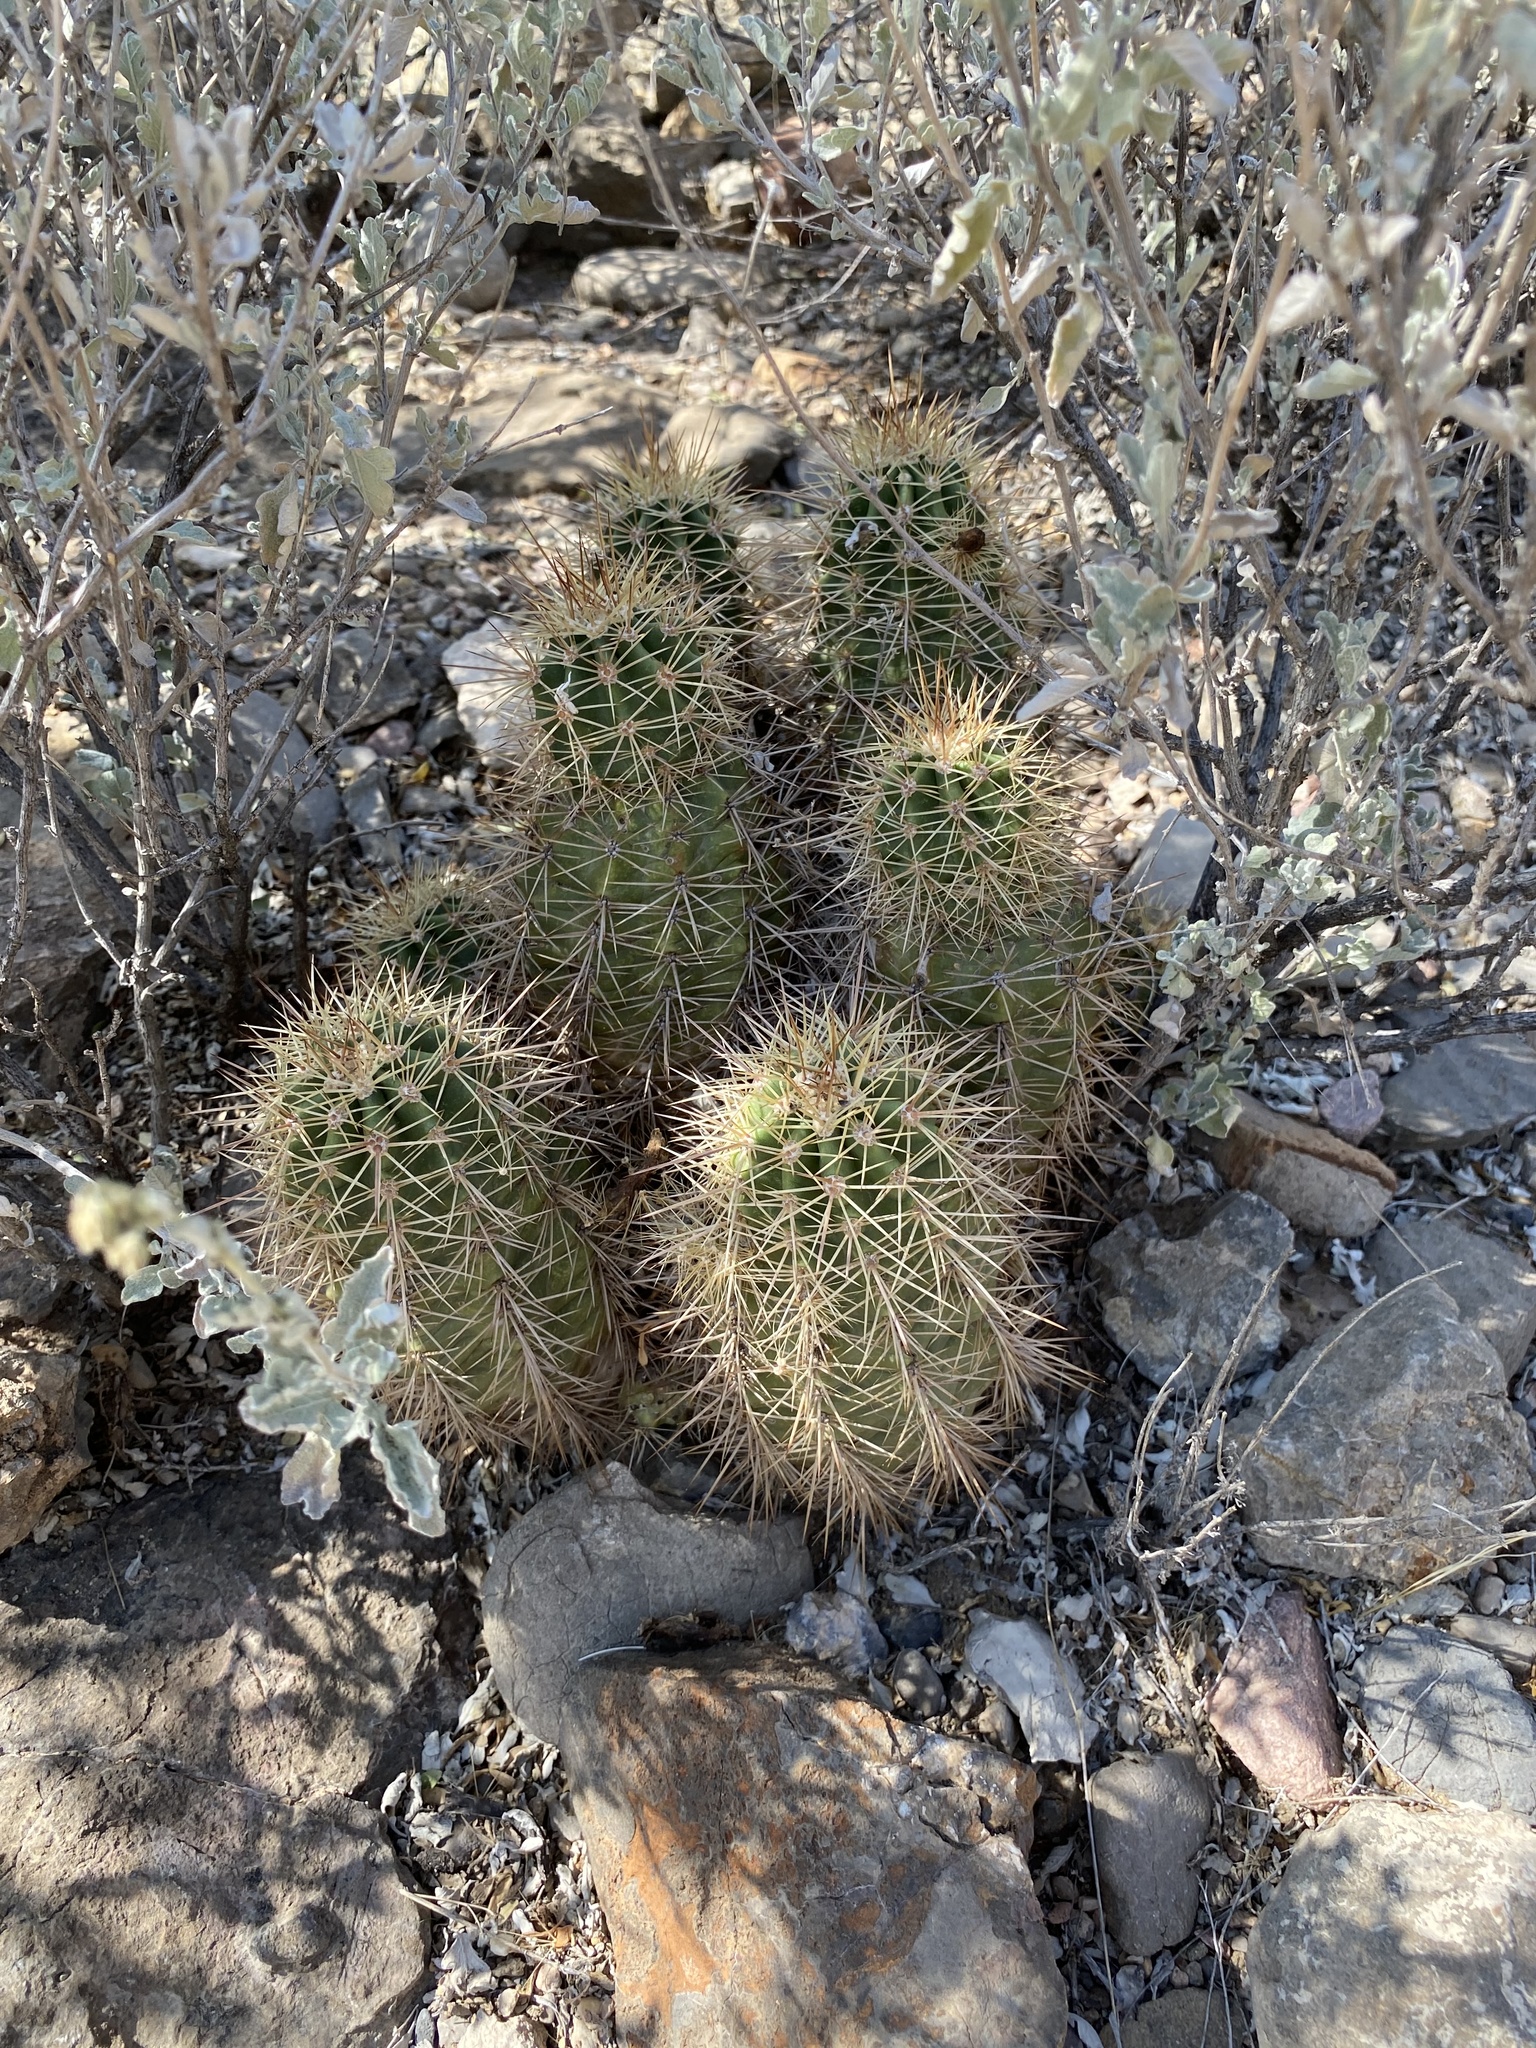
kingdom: Plantae
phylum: Tracheophyta
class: Magnoliopsida
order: Caryophyllales
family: Cactaceae
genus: Echinocereus
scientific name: Echinocereus coccineus
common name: Scarlet hedgehog cactus
